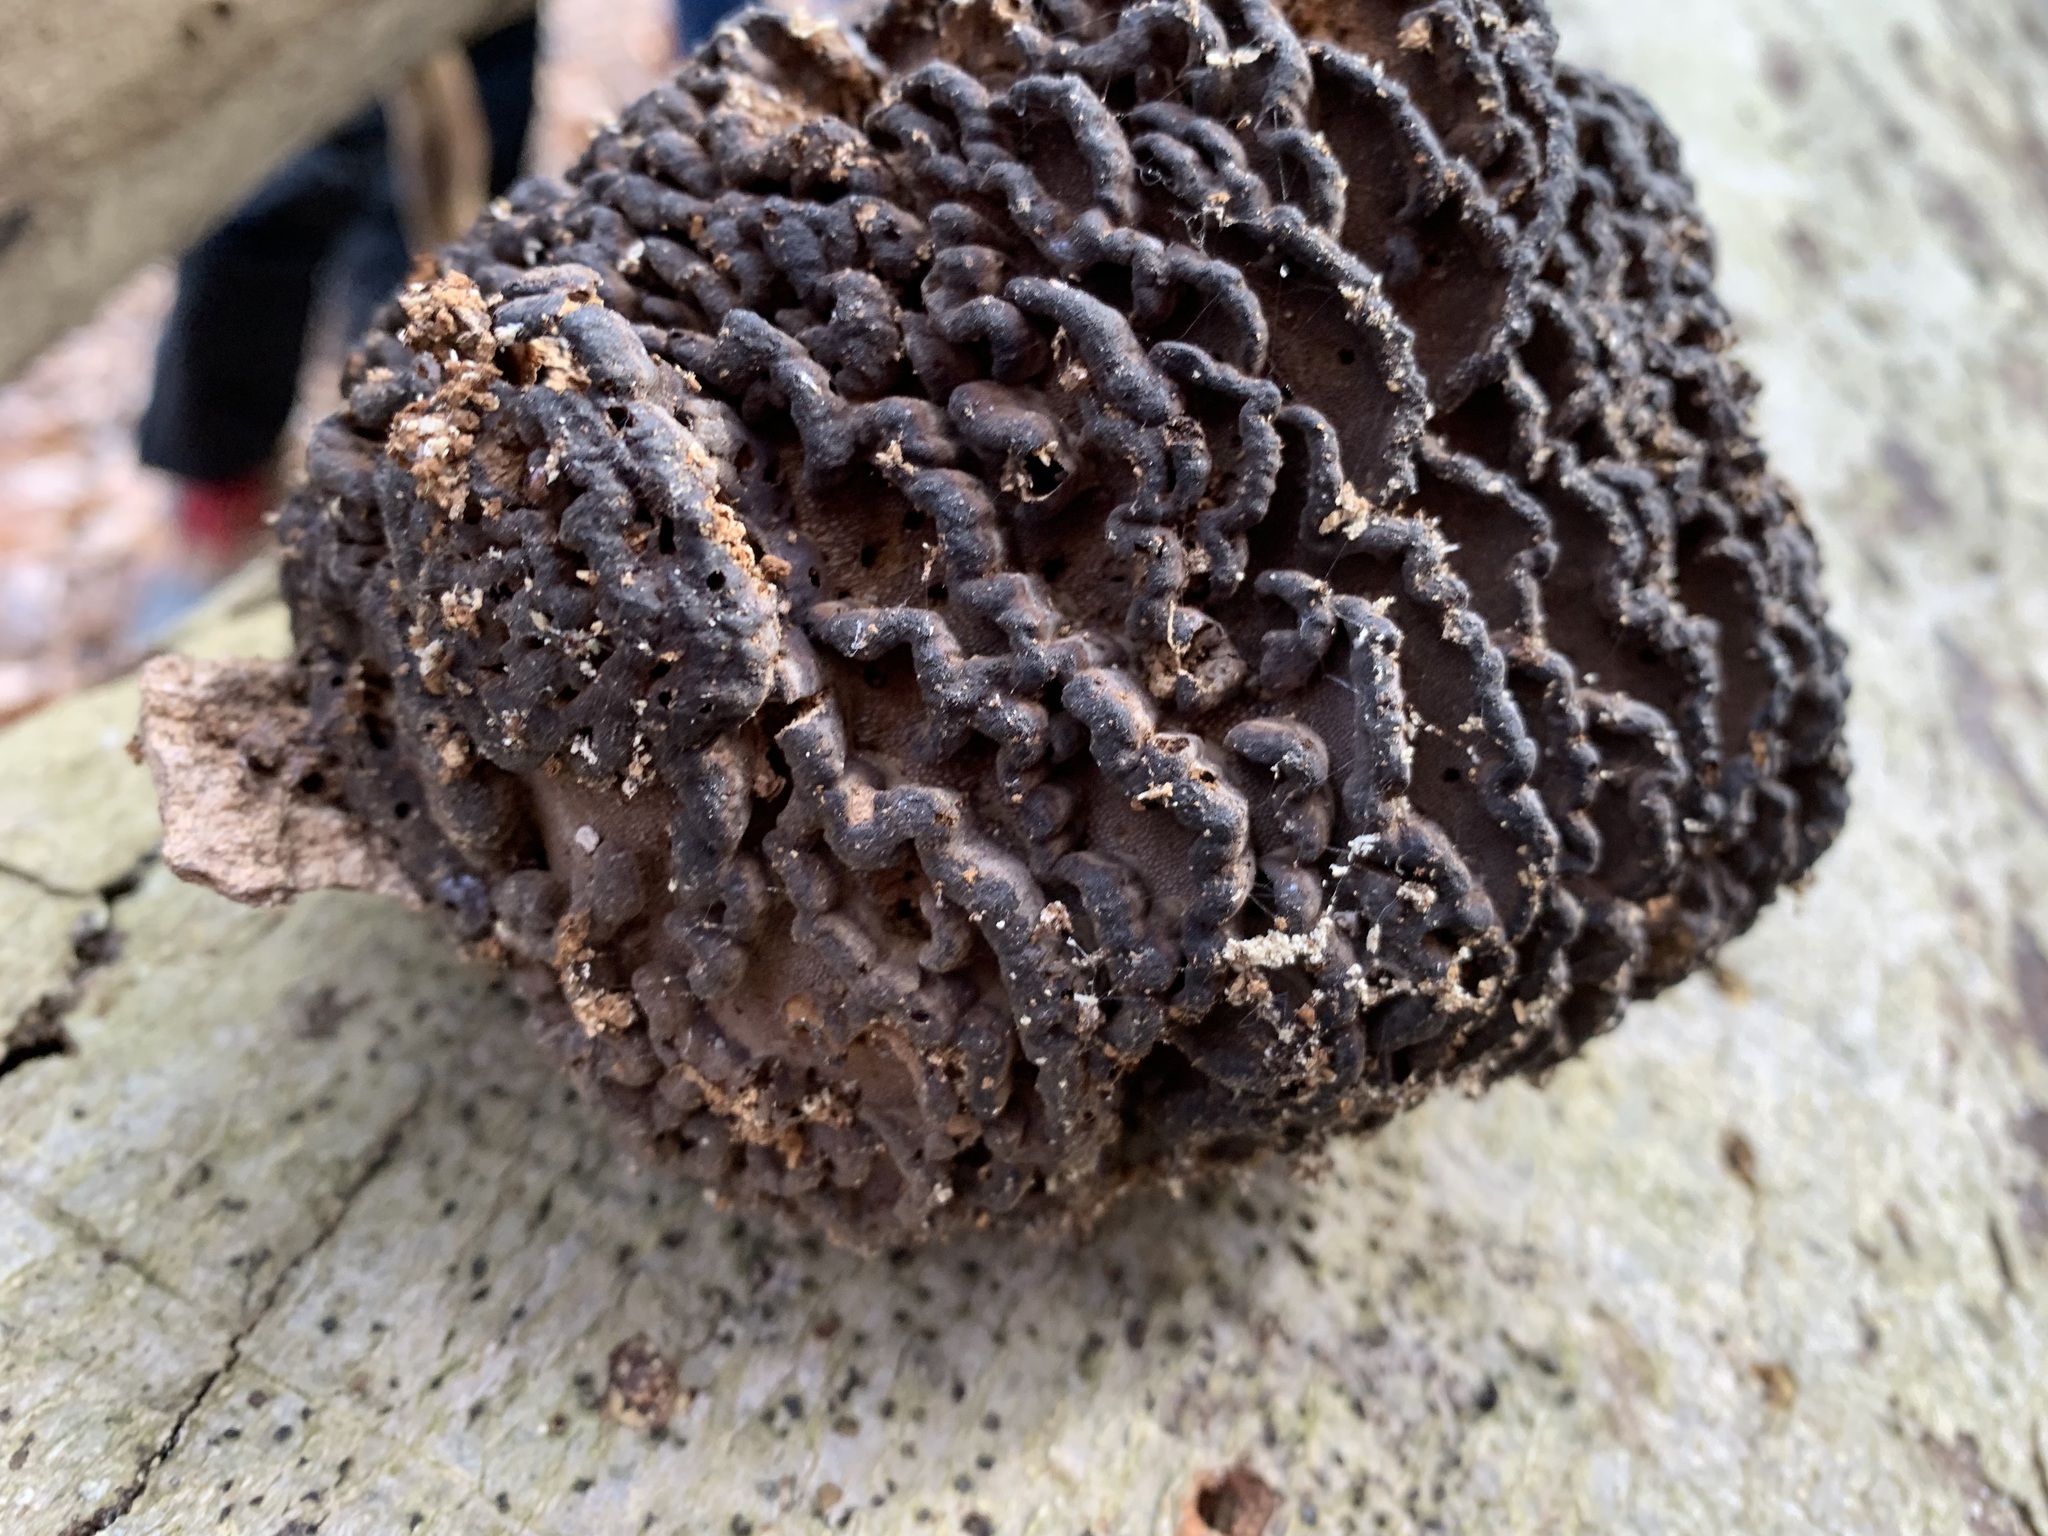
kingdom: Fungi
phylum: Basidiomycota
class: Agaricomycetes
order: Polyporales
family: Polyporaceae
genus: Globifomes
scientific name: Globifomes graveolens
